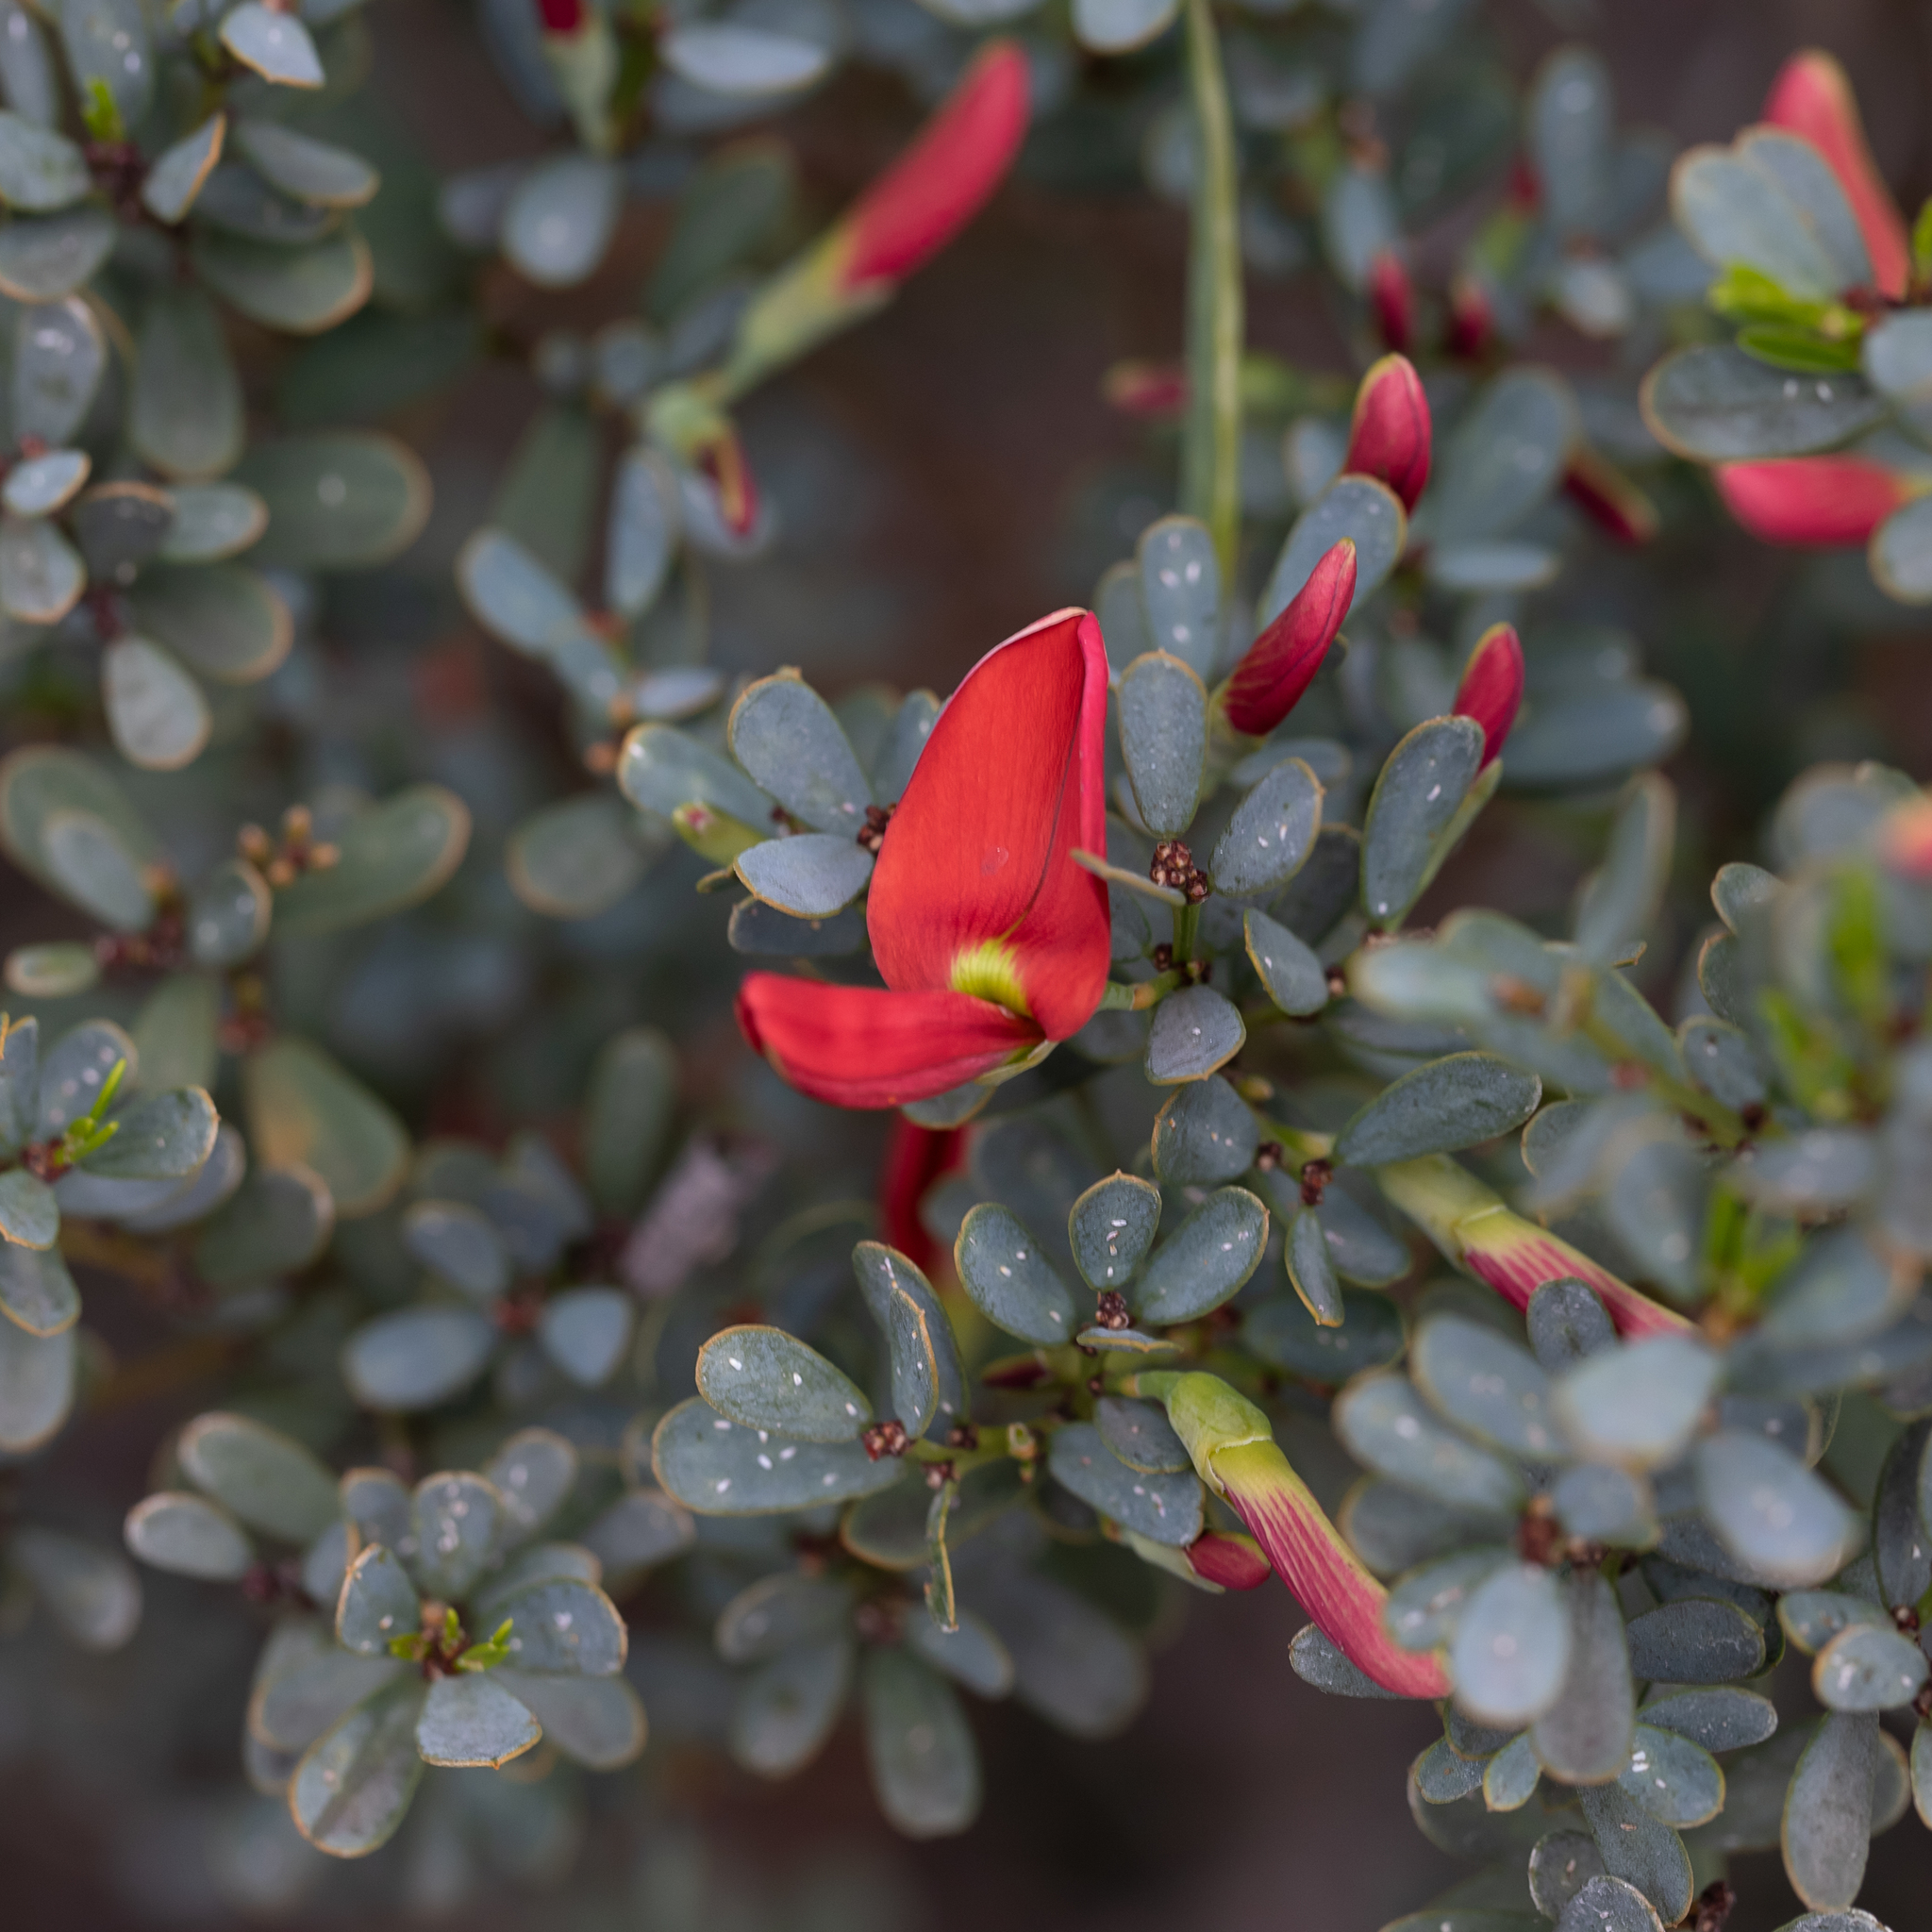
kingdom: Plantae
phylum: Tracheophyta
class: Magnoliopsida
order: Fabales
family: Fabaceae
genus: Templetonia
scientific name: Templetonia retusa
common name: Cockies'-tongue
